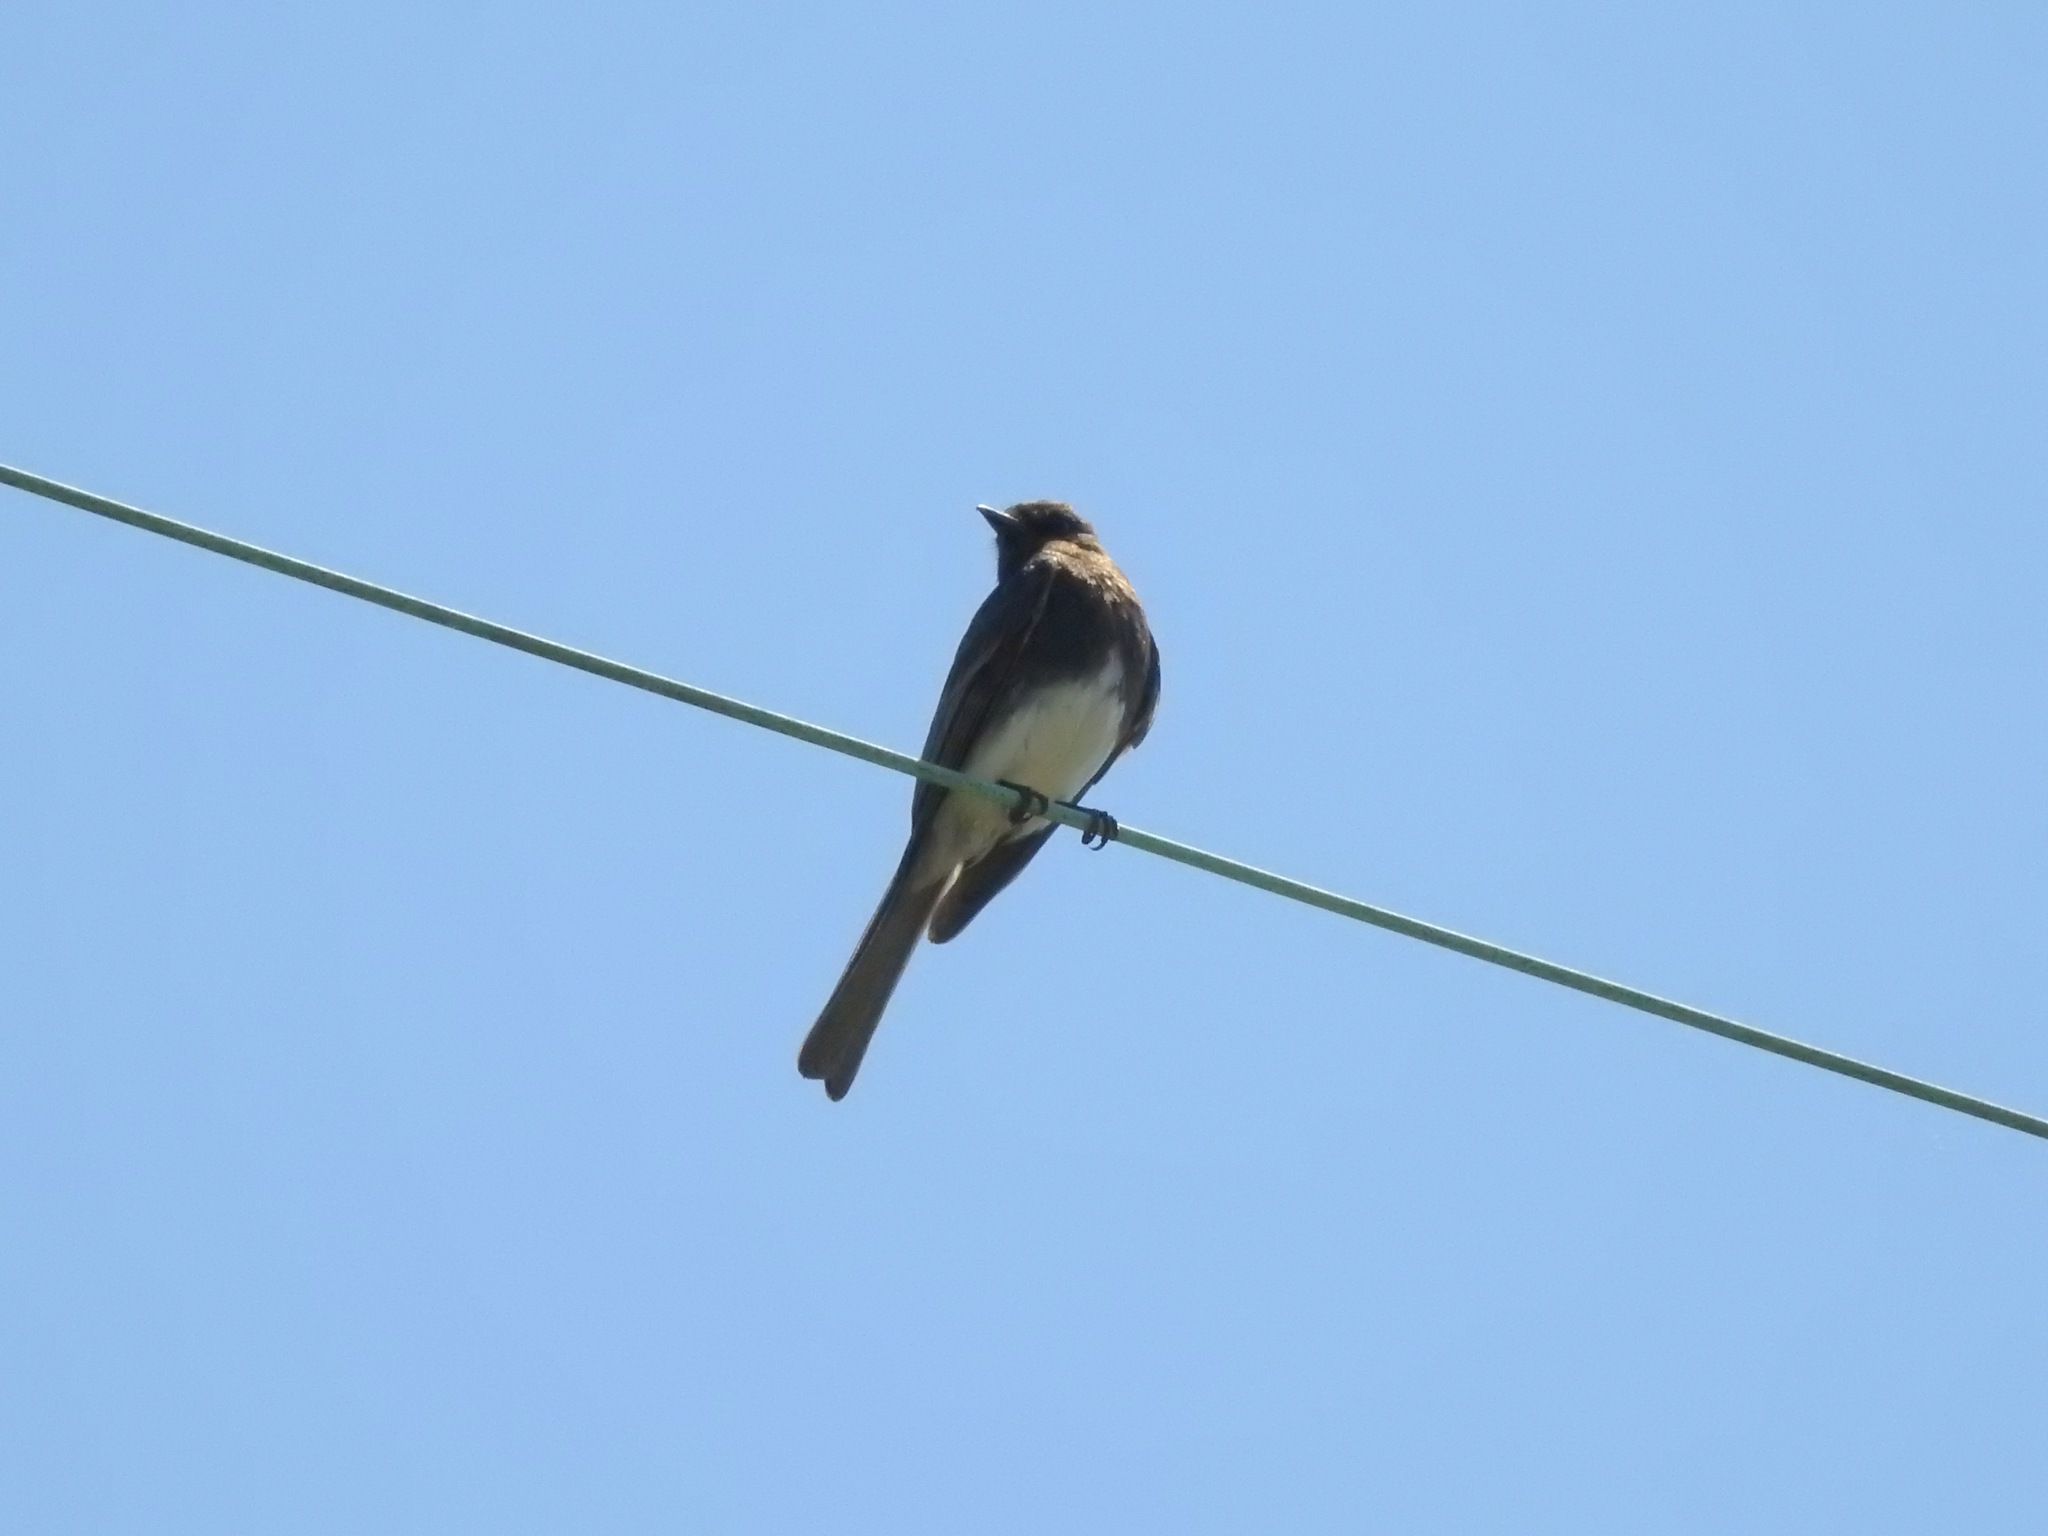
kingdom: Animalia
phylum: Chordata
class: Aves
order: Passeriformes
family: Tyrannidae
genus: Sayornis
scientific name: Sayornis nigricans
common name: Black phoebe
